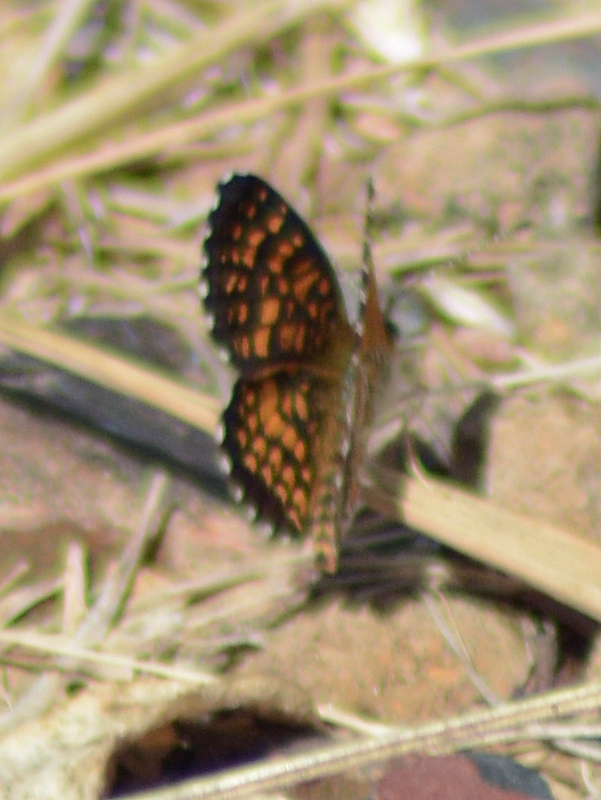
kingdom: Animalia
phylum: Arthropoda
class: Insecta
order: Lepidoptera
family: Nymphalidae
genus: Texola
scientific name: Texola elada
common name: Elada checkerspot
